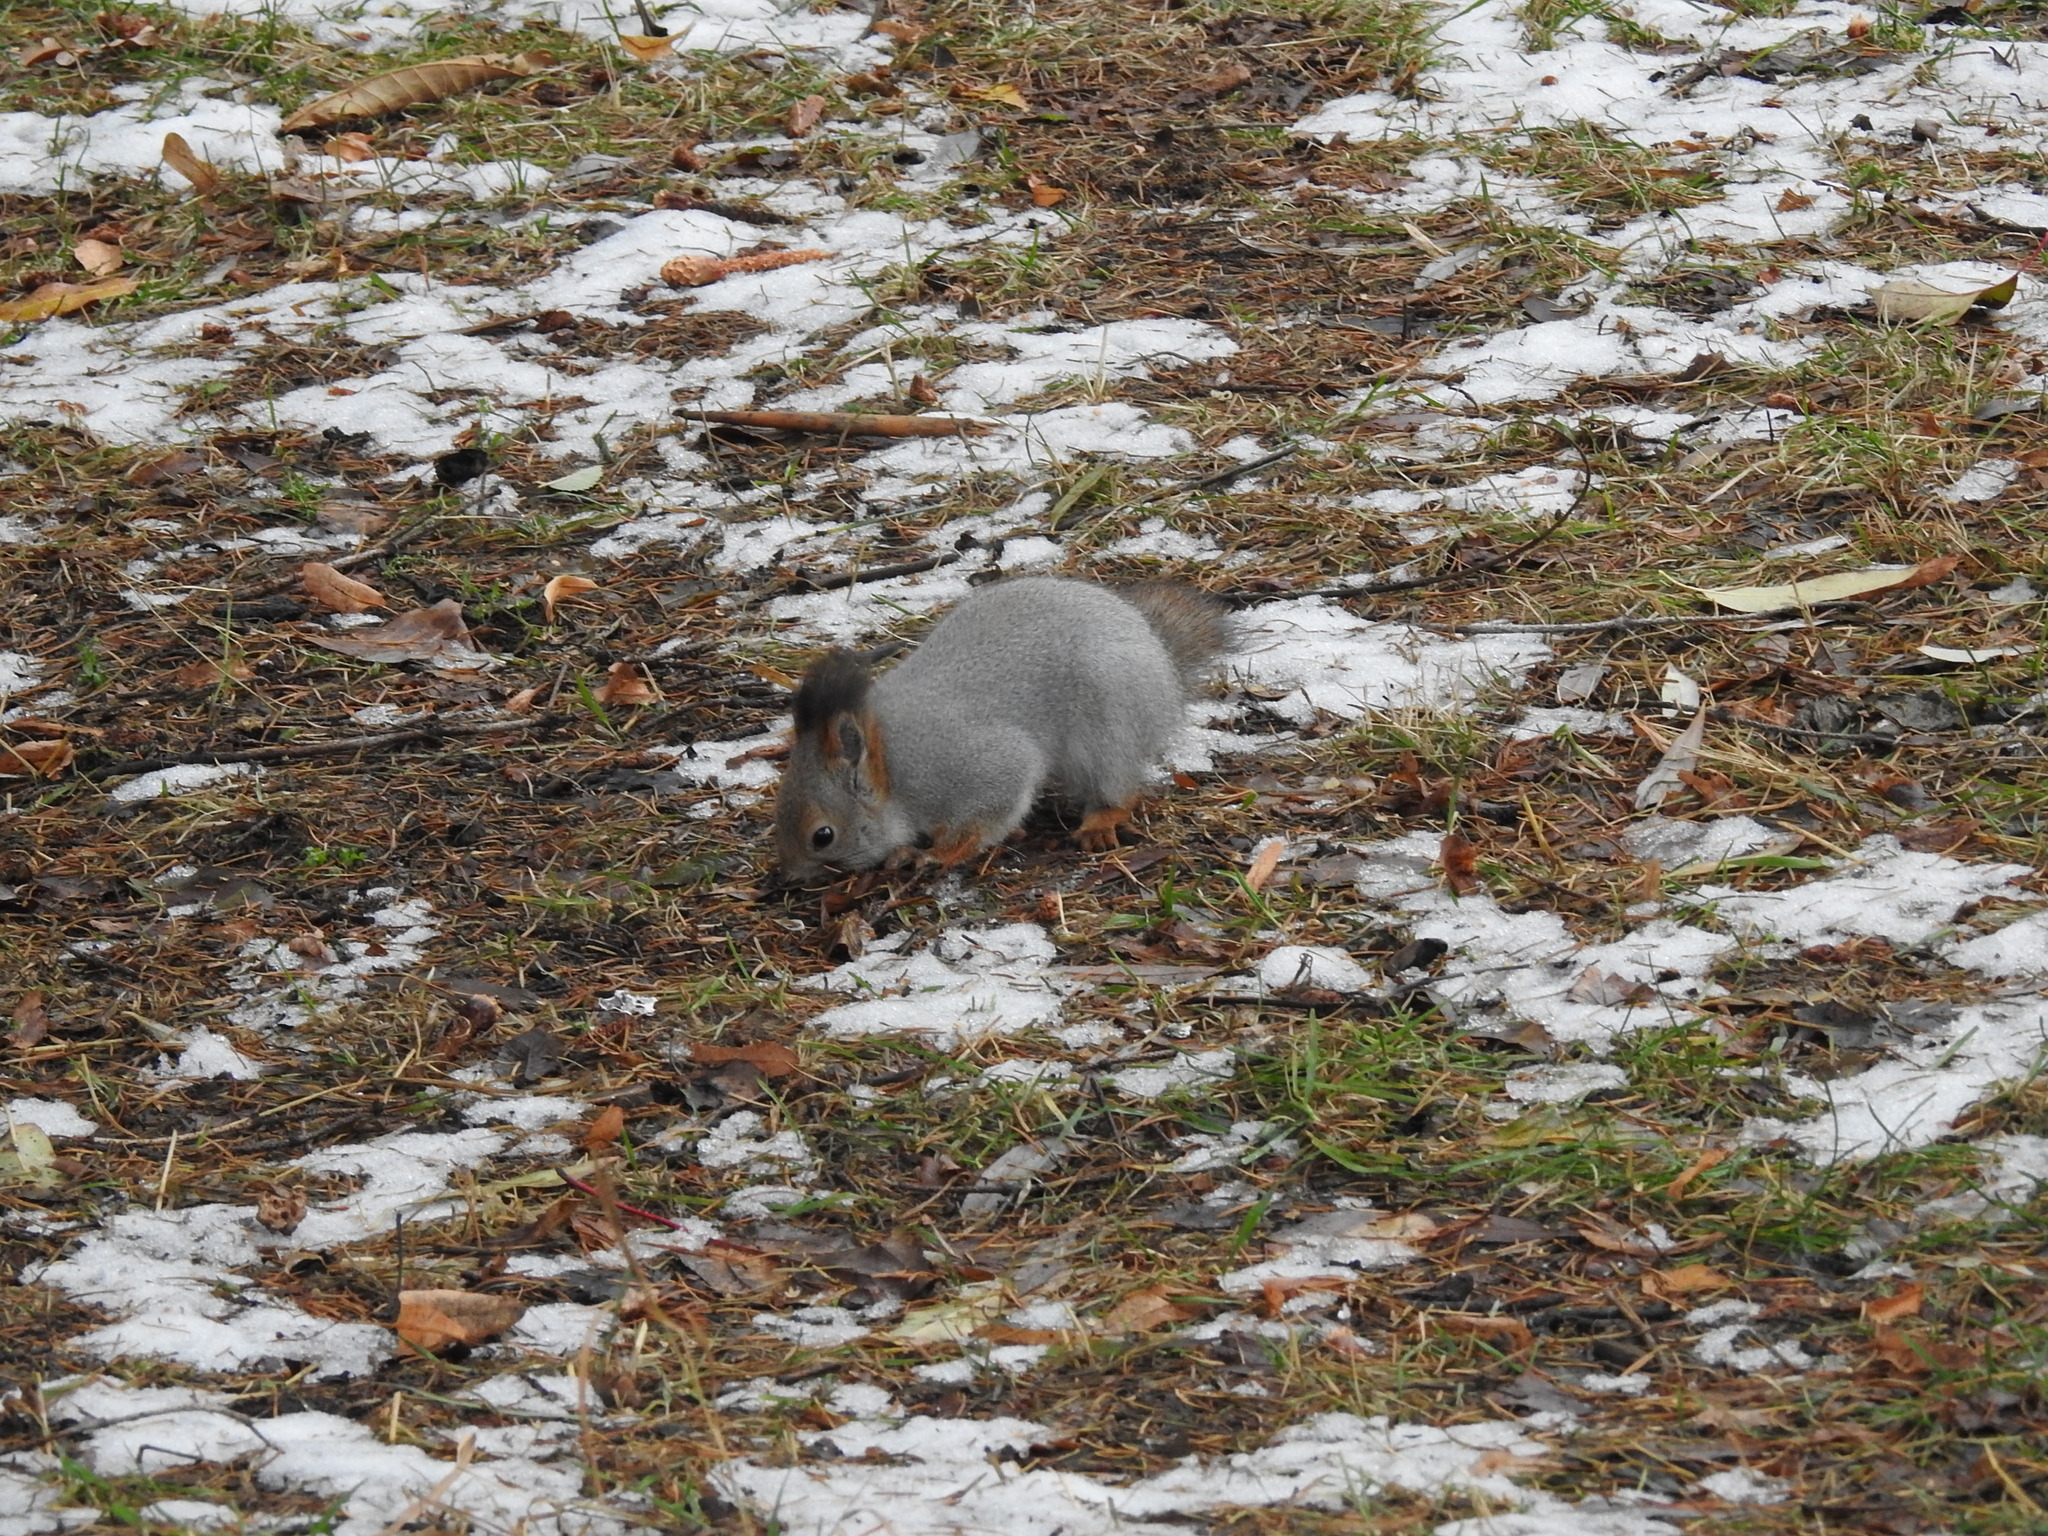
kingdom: Animalia
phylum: Chordata
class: Mammalia
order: Rodentia
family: Sciuridae
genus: Sciurus
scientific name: Sciurus vulgaris
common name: Eurasian red squirrel
